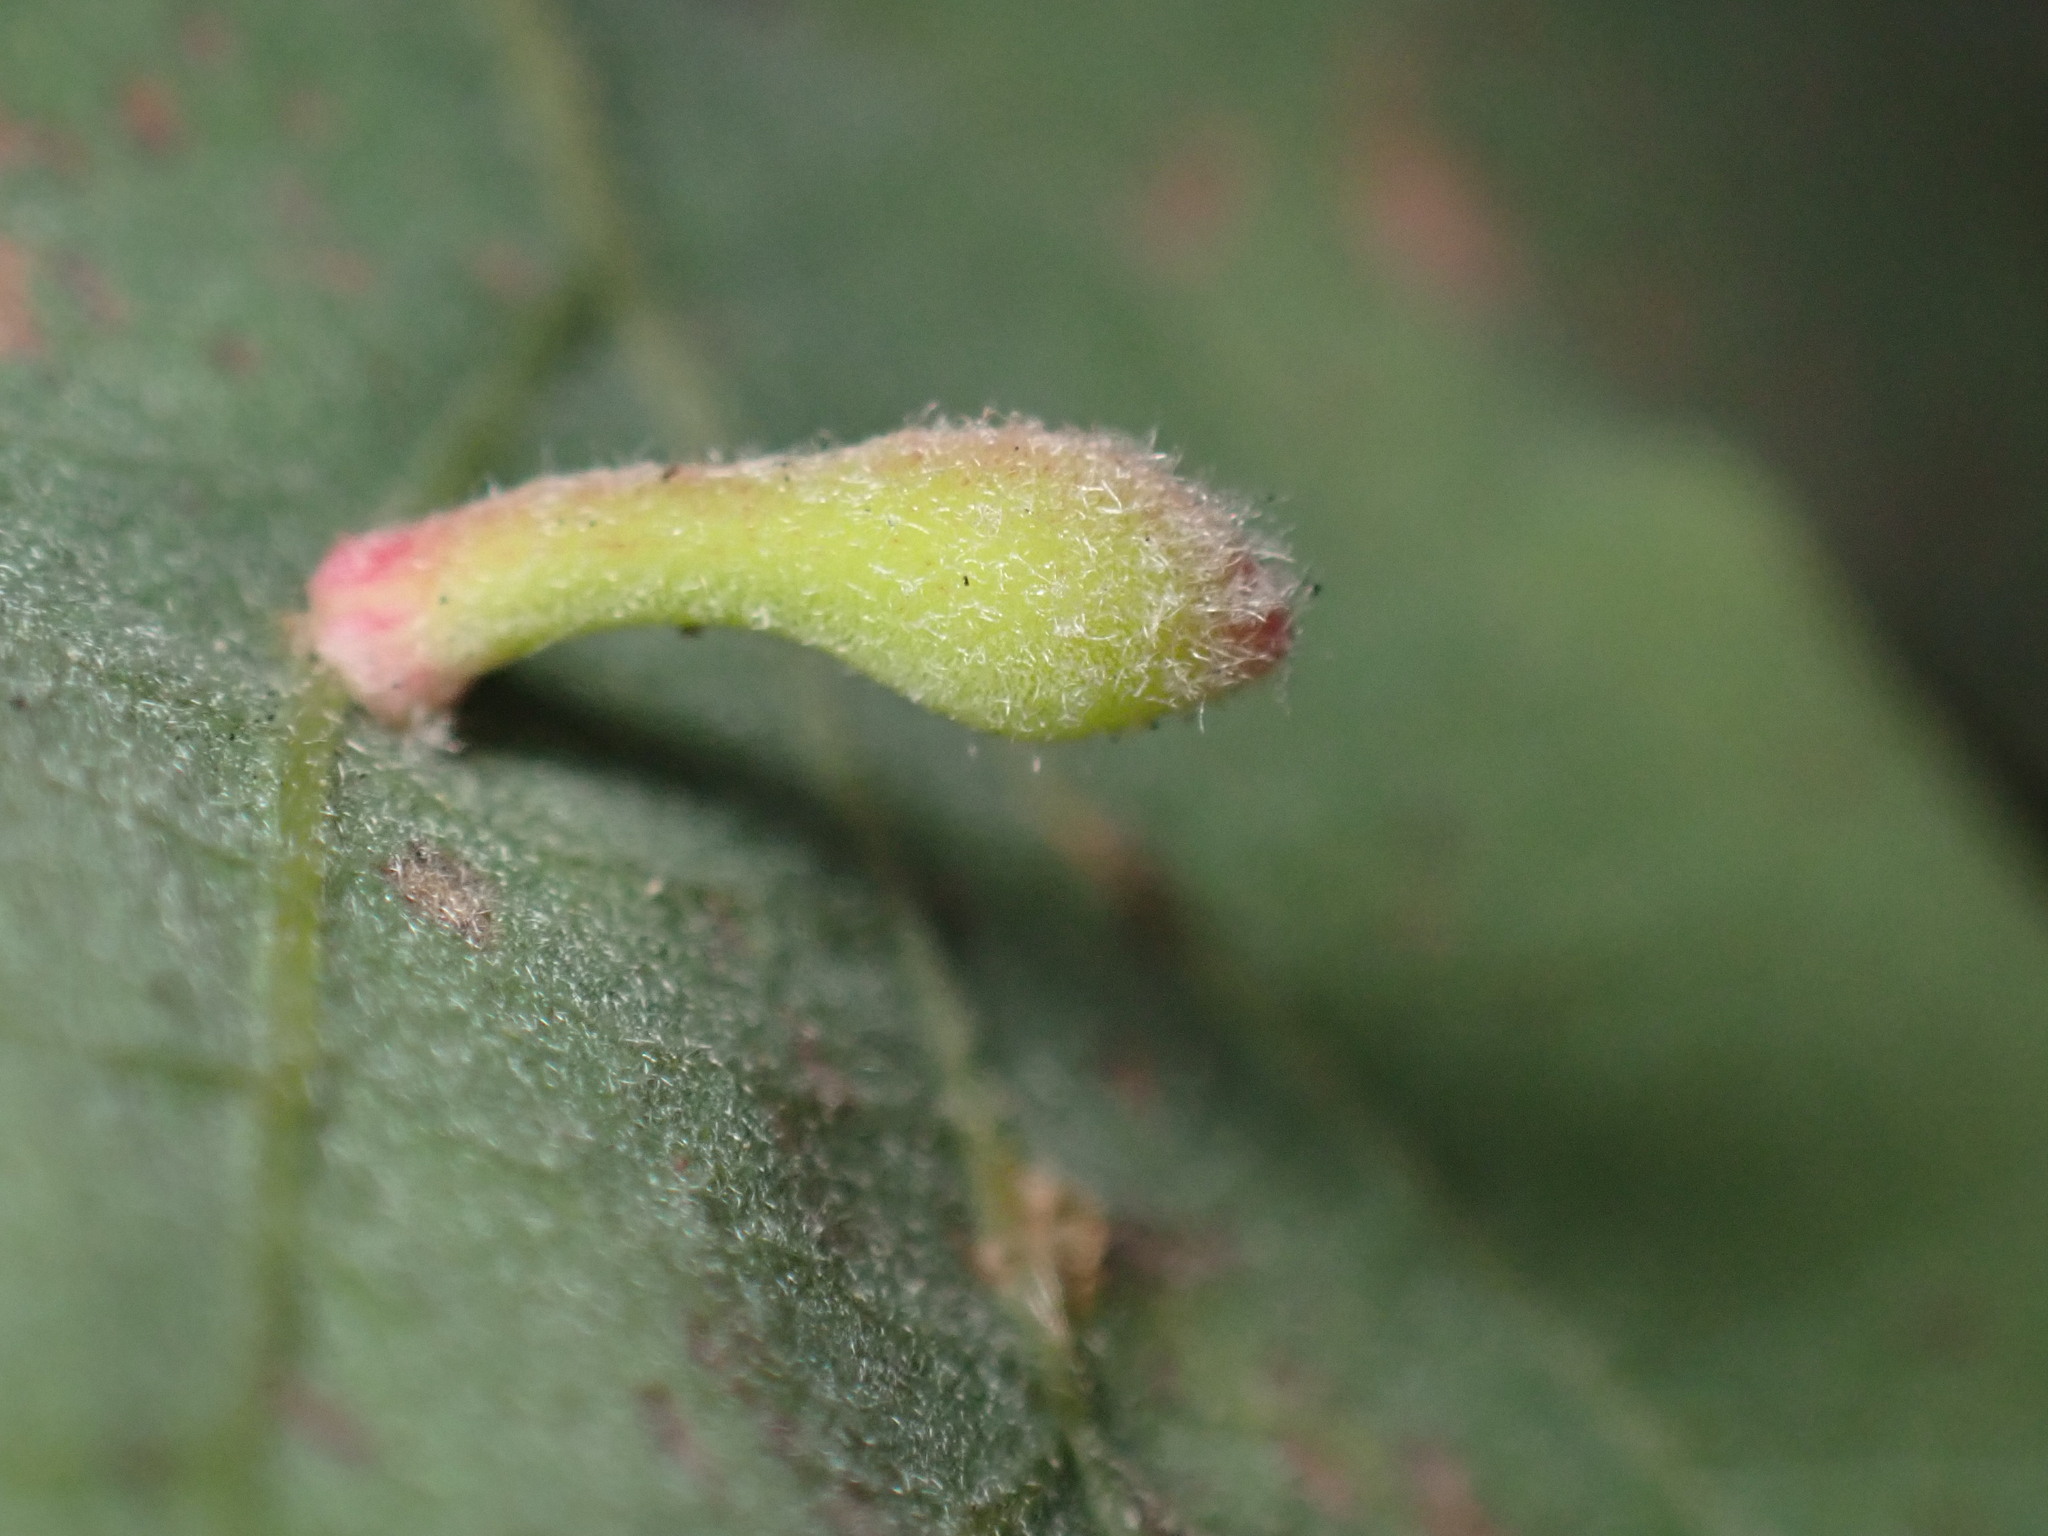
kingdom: Animalia
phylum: Arthropoda
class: Insecta
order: Hymenoptera
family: Cynipidae
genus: Atrusca
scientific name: Atrusca
